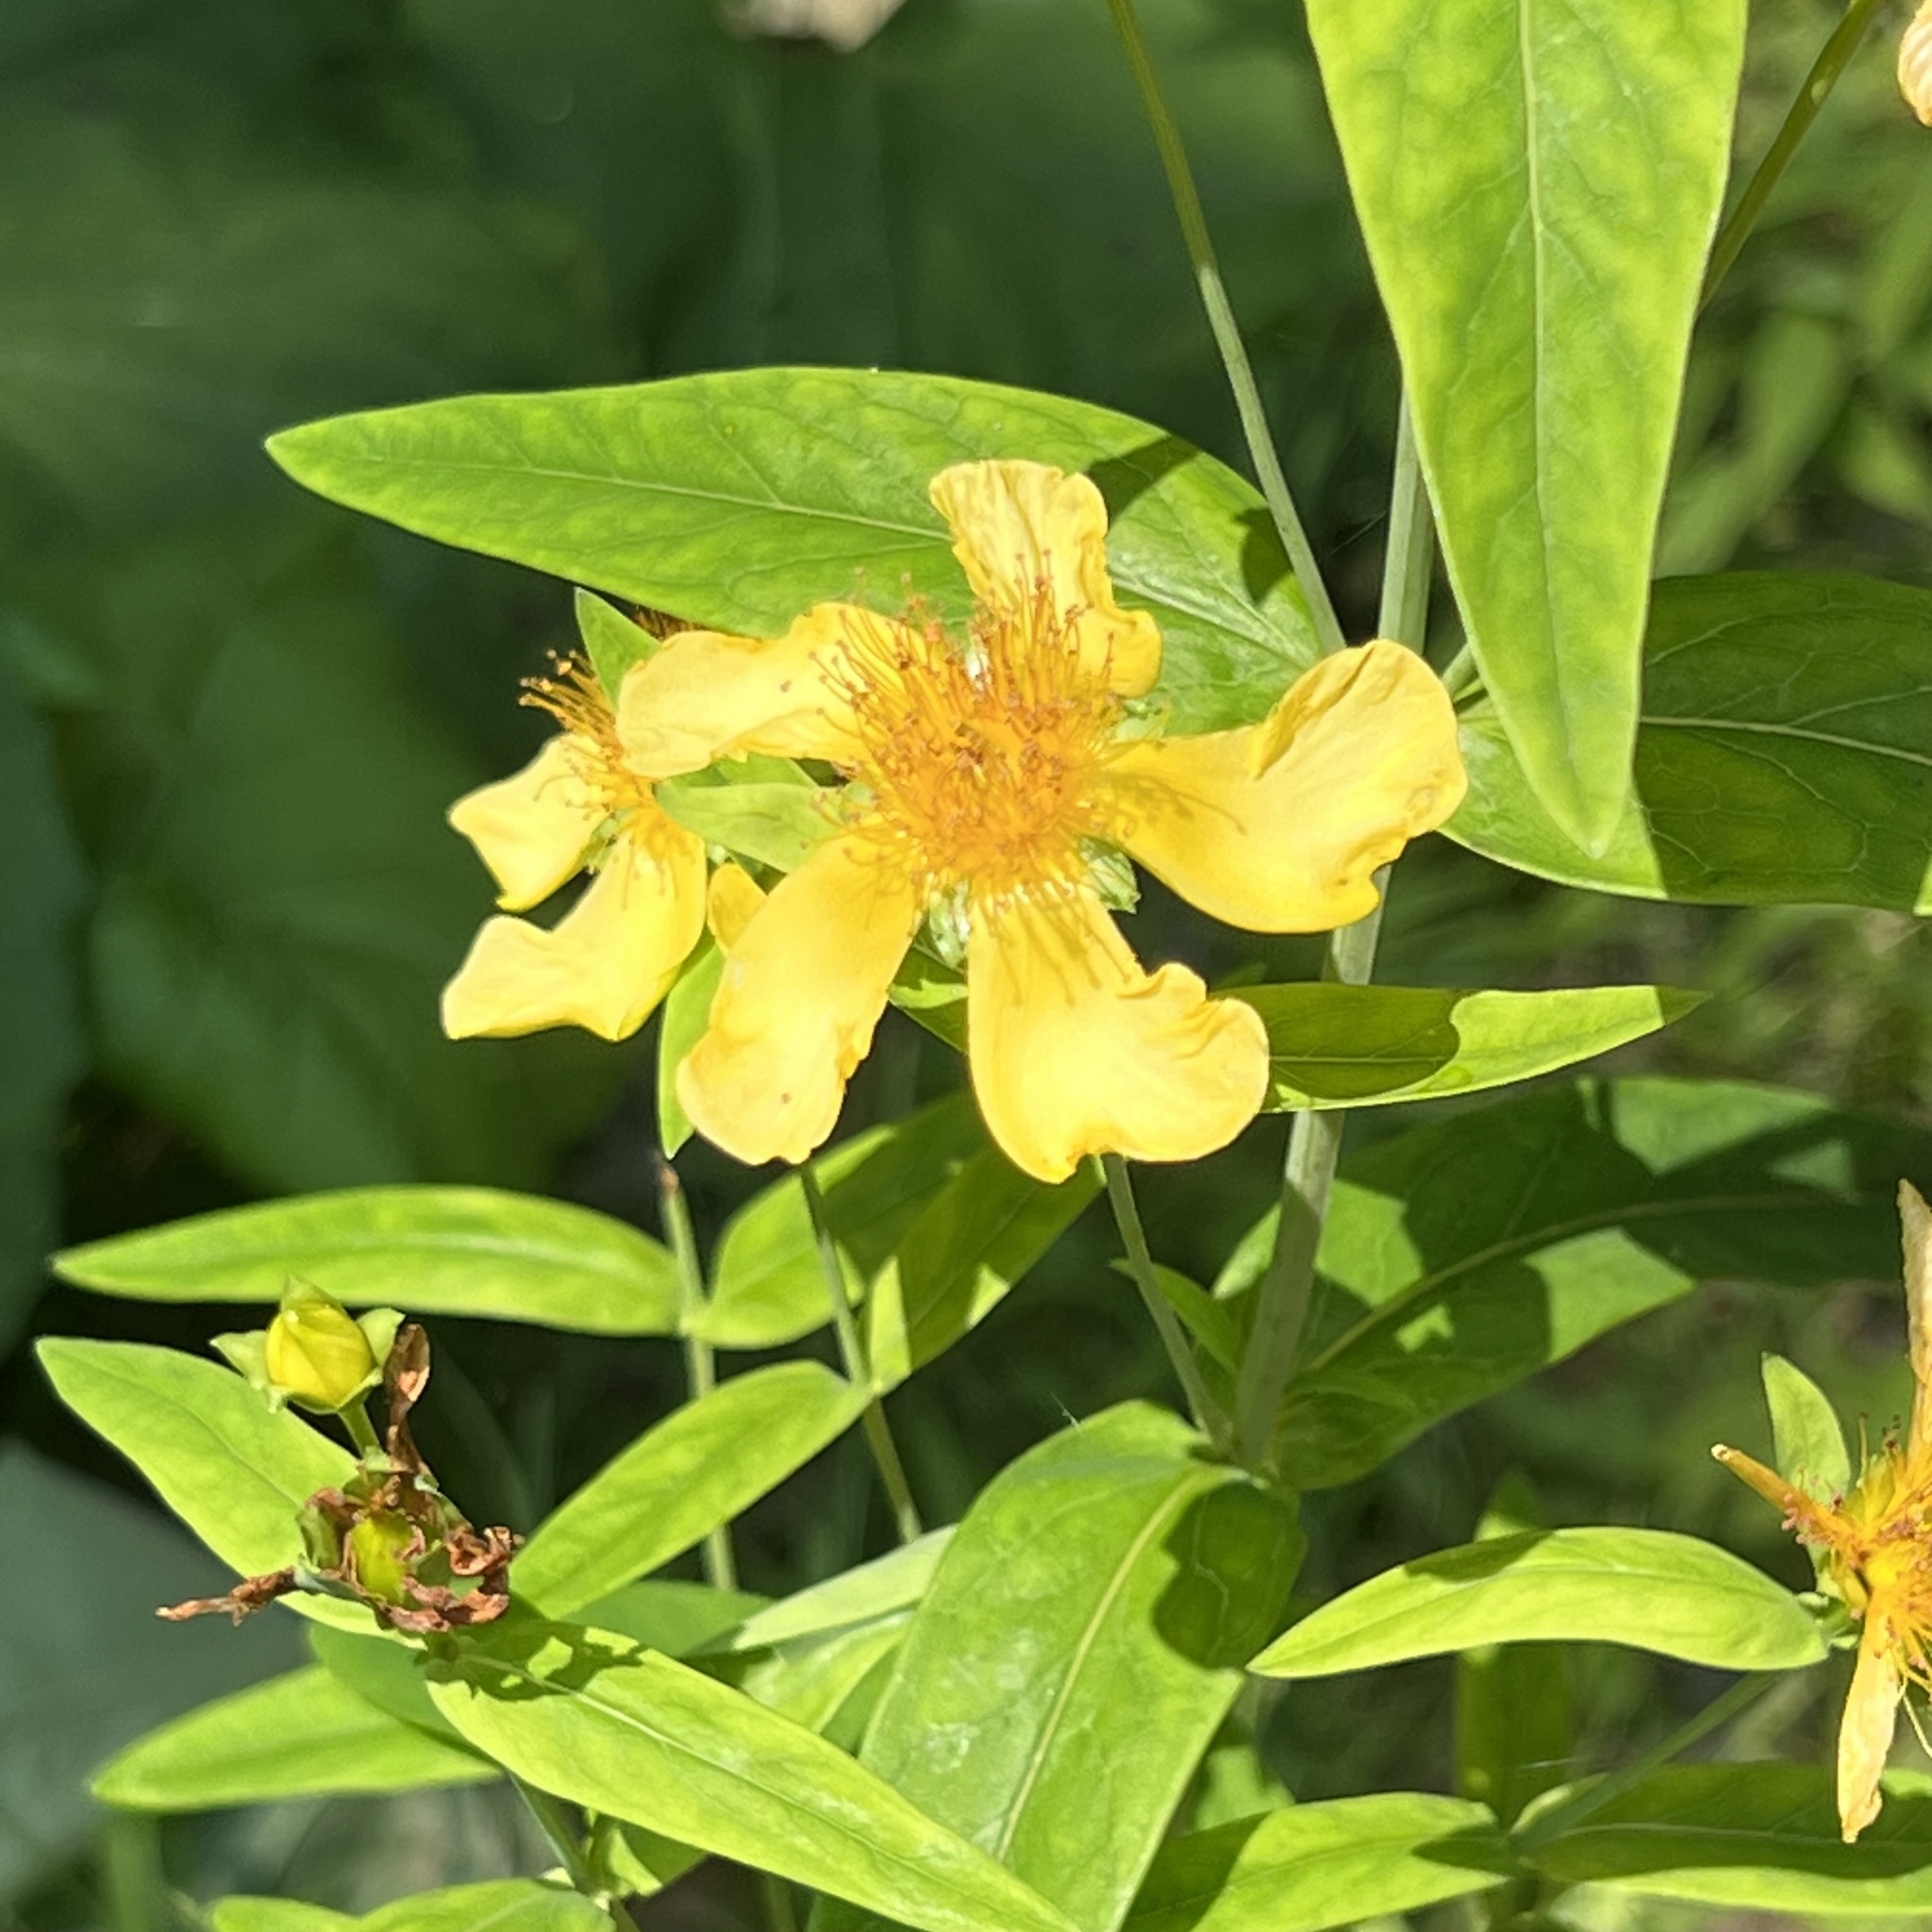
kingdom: Plantae
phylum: Tracheophyta
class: Magnoliopsida
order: Malpighiales
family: Hypericaceae
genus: Hypericum
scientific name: Hypericum ascyron
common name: Giant st. john's-wort
